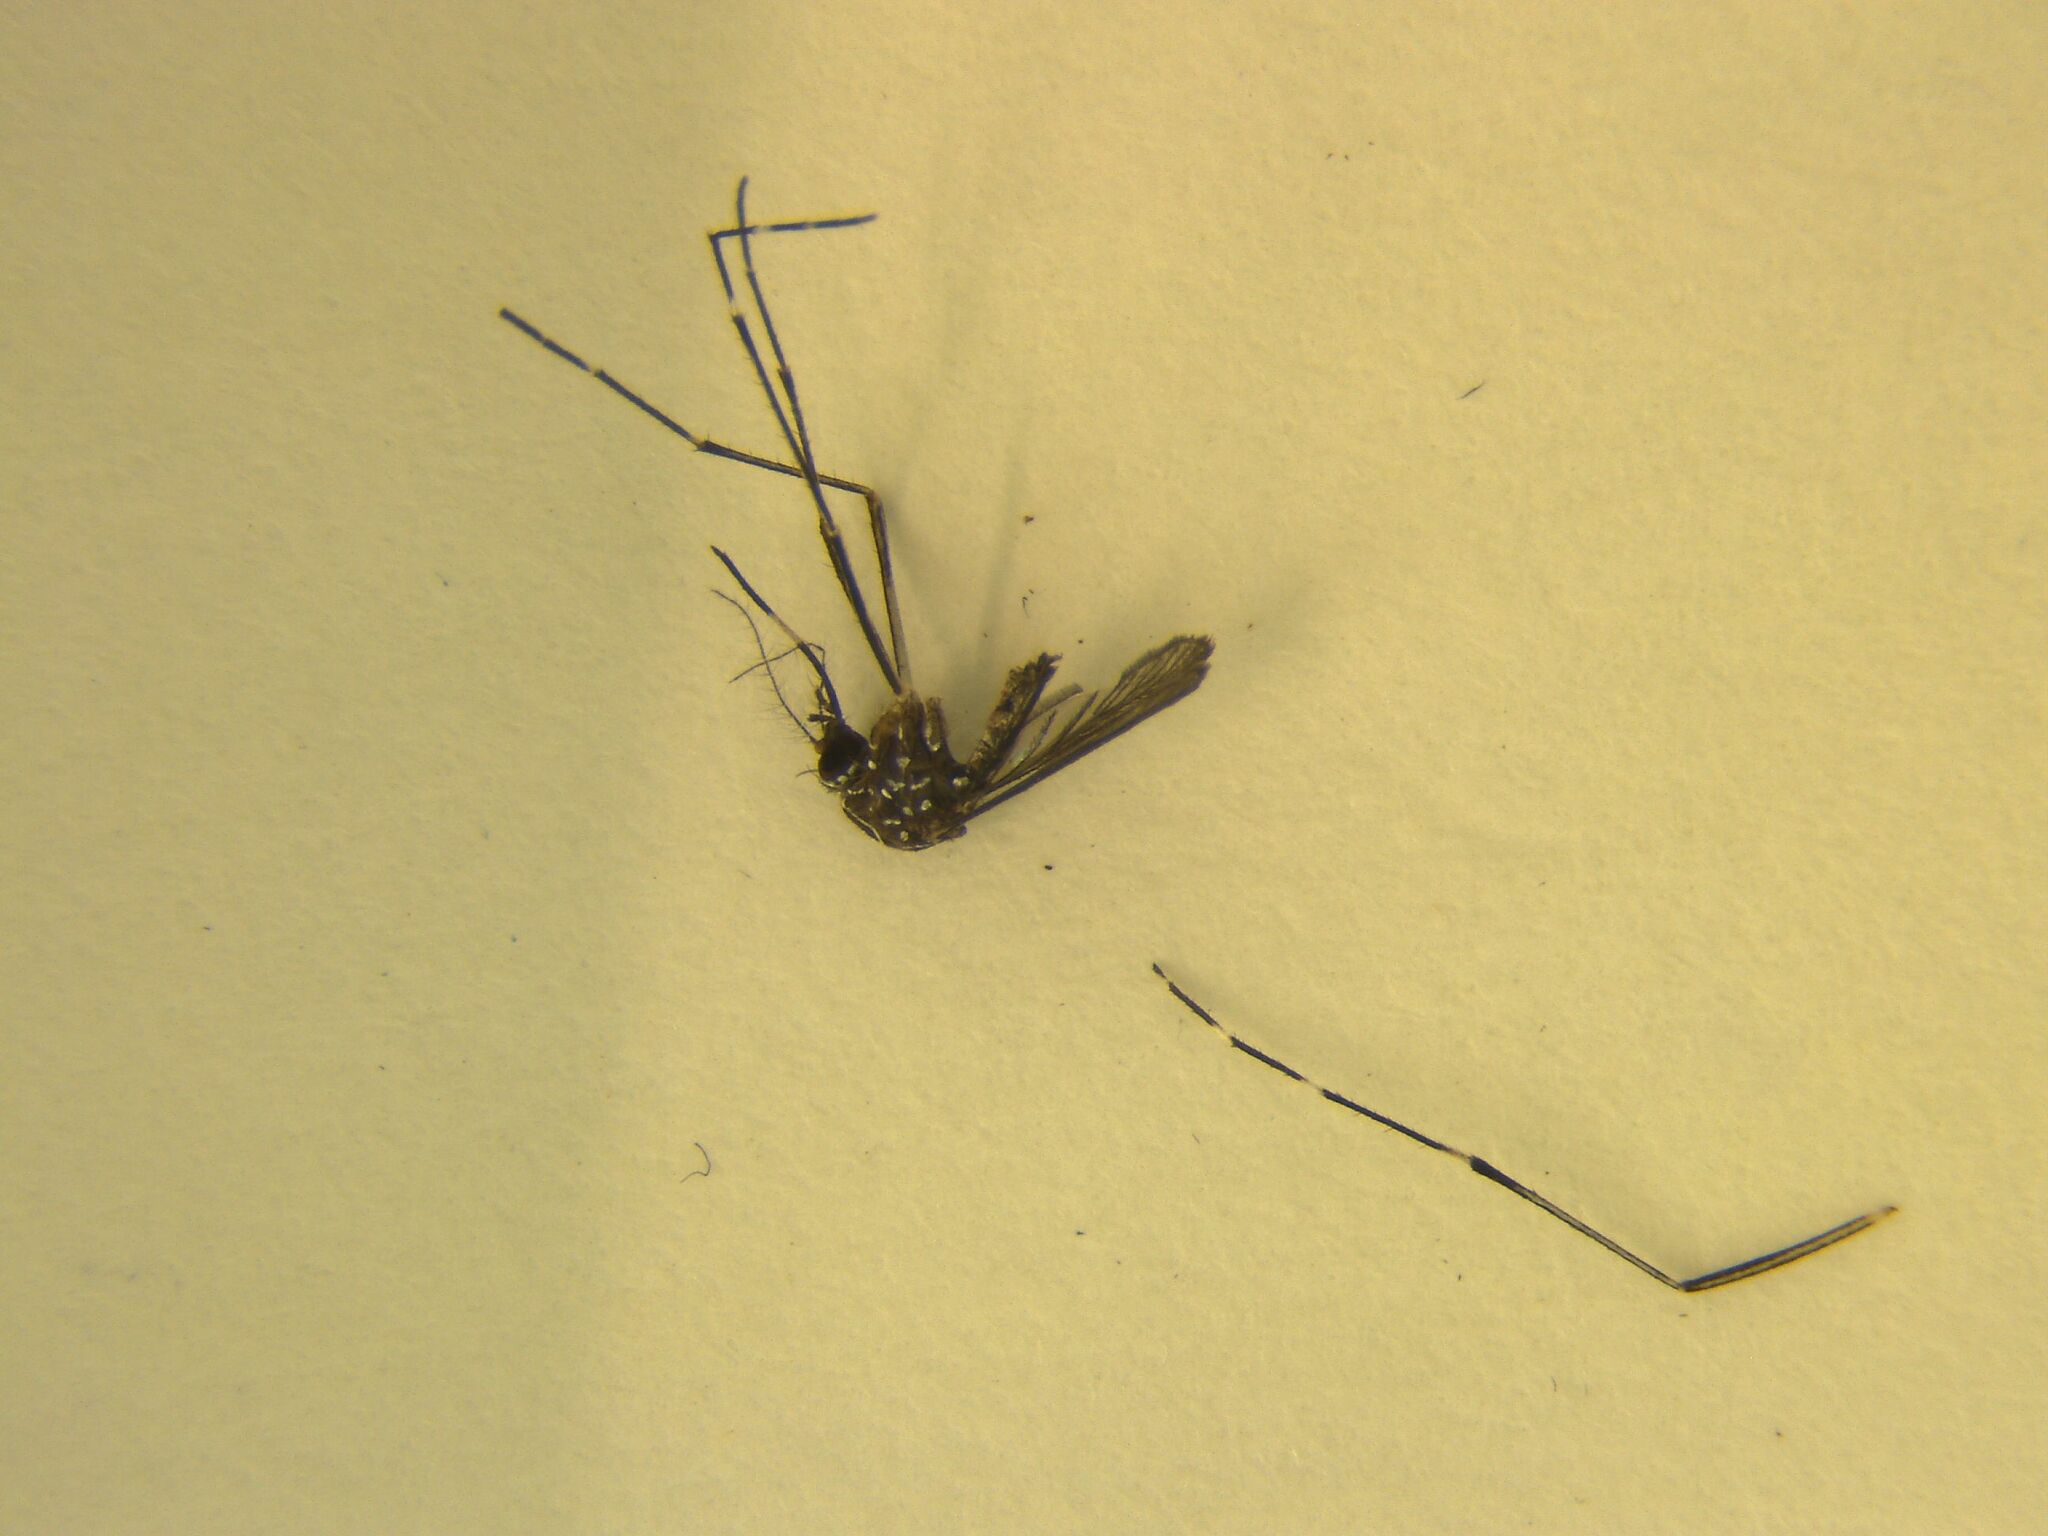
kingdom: Animalia
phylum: Arthropoda
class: Insecta
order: Diptera
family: Culicidae
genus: Aedes
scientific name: Aedes notoscriptus
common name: Australian backyard mosquito
